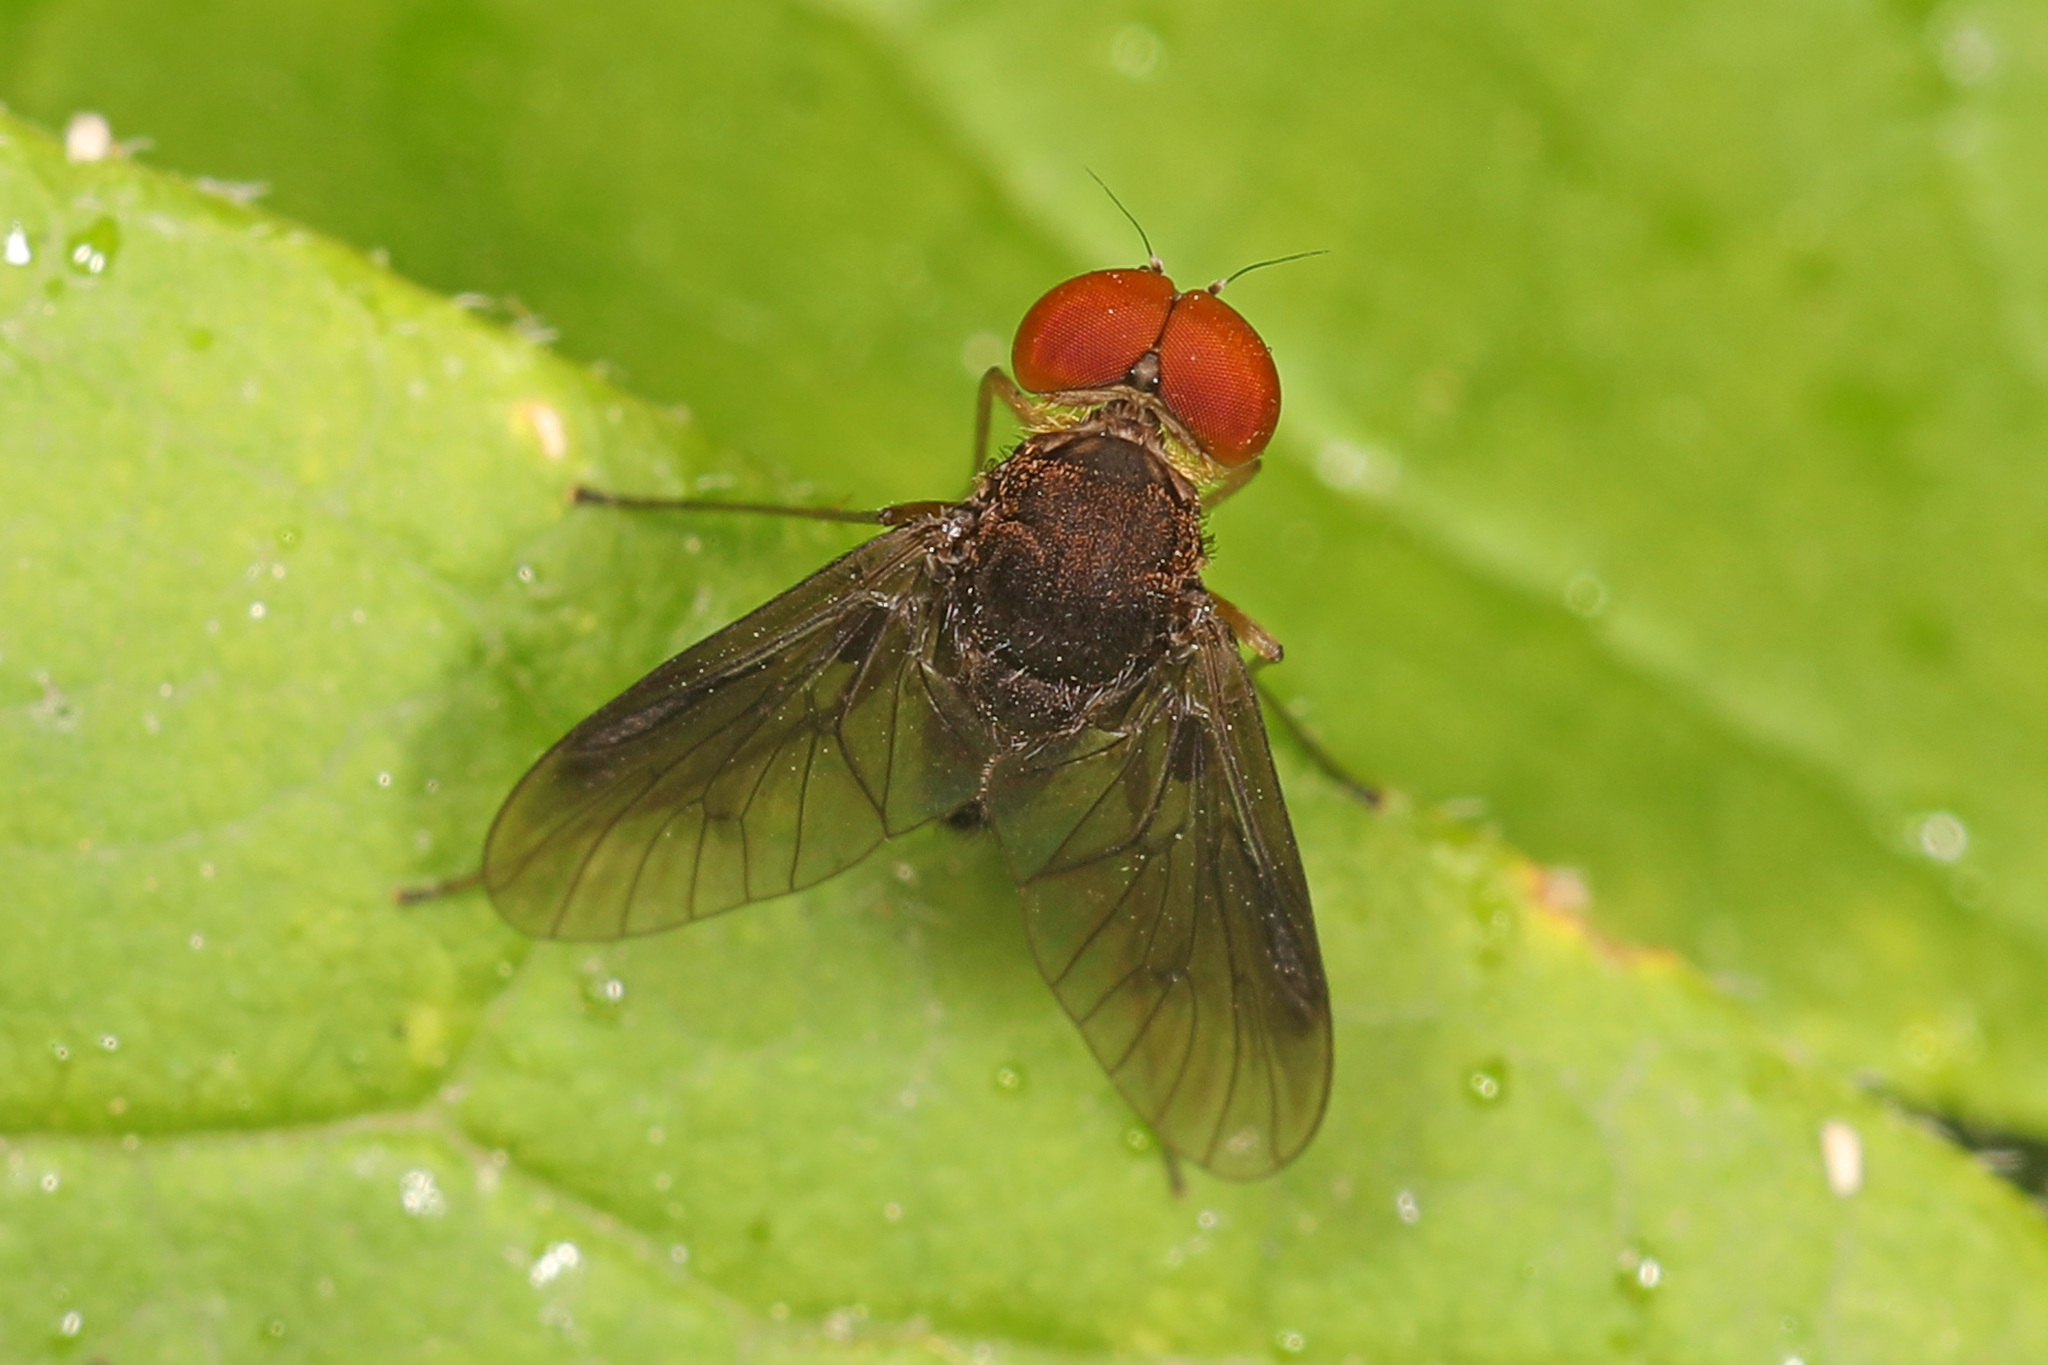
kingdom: Animalia
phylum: Arthropoda
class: Insecta
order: Diptera
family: Rhagionidae
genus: Chrysopilus
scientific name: Chrysopilus quadratus
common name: Quadrate snipe fly
